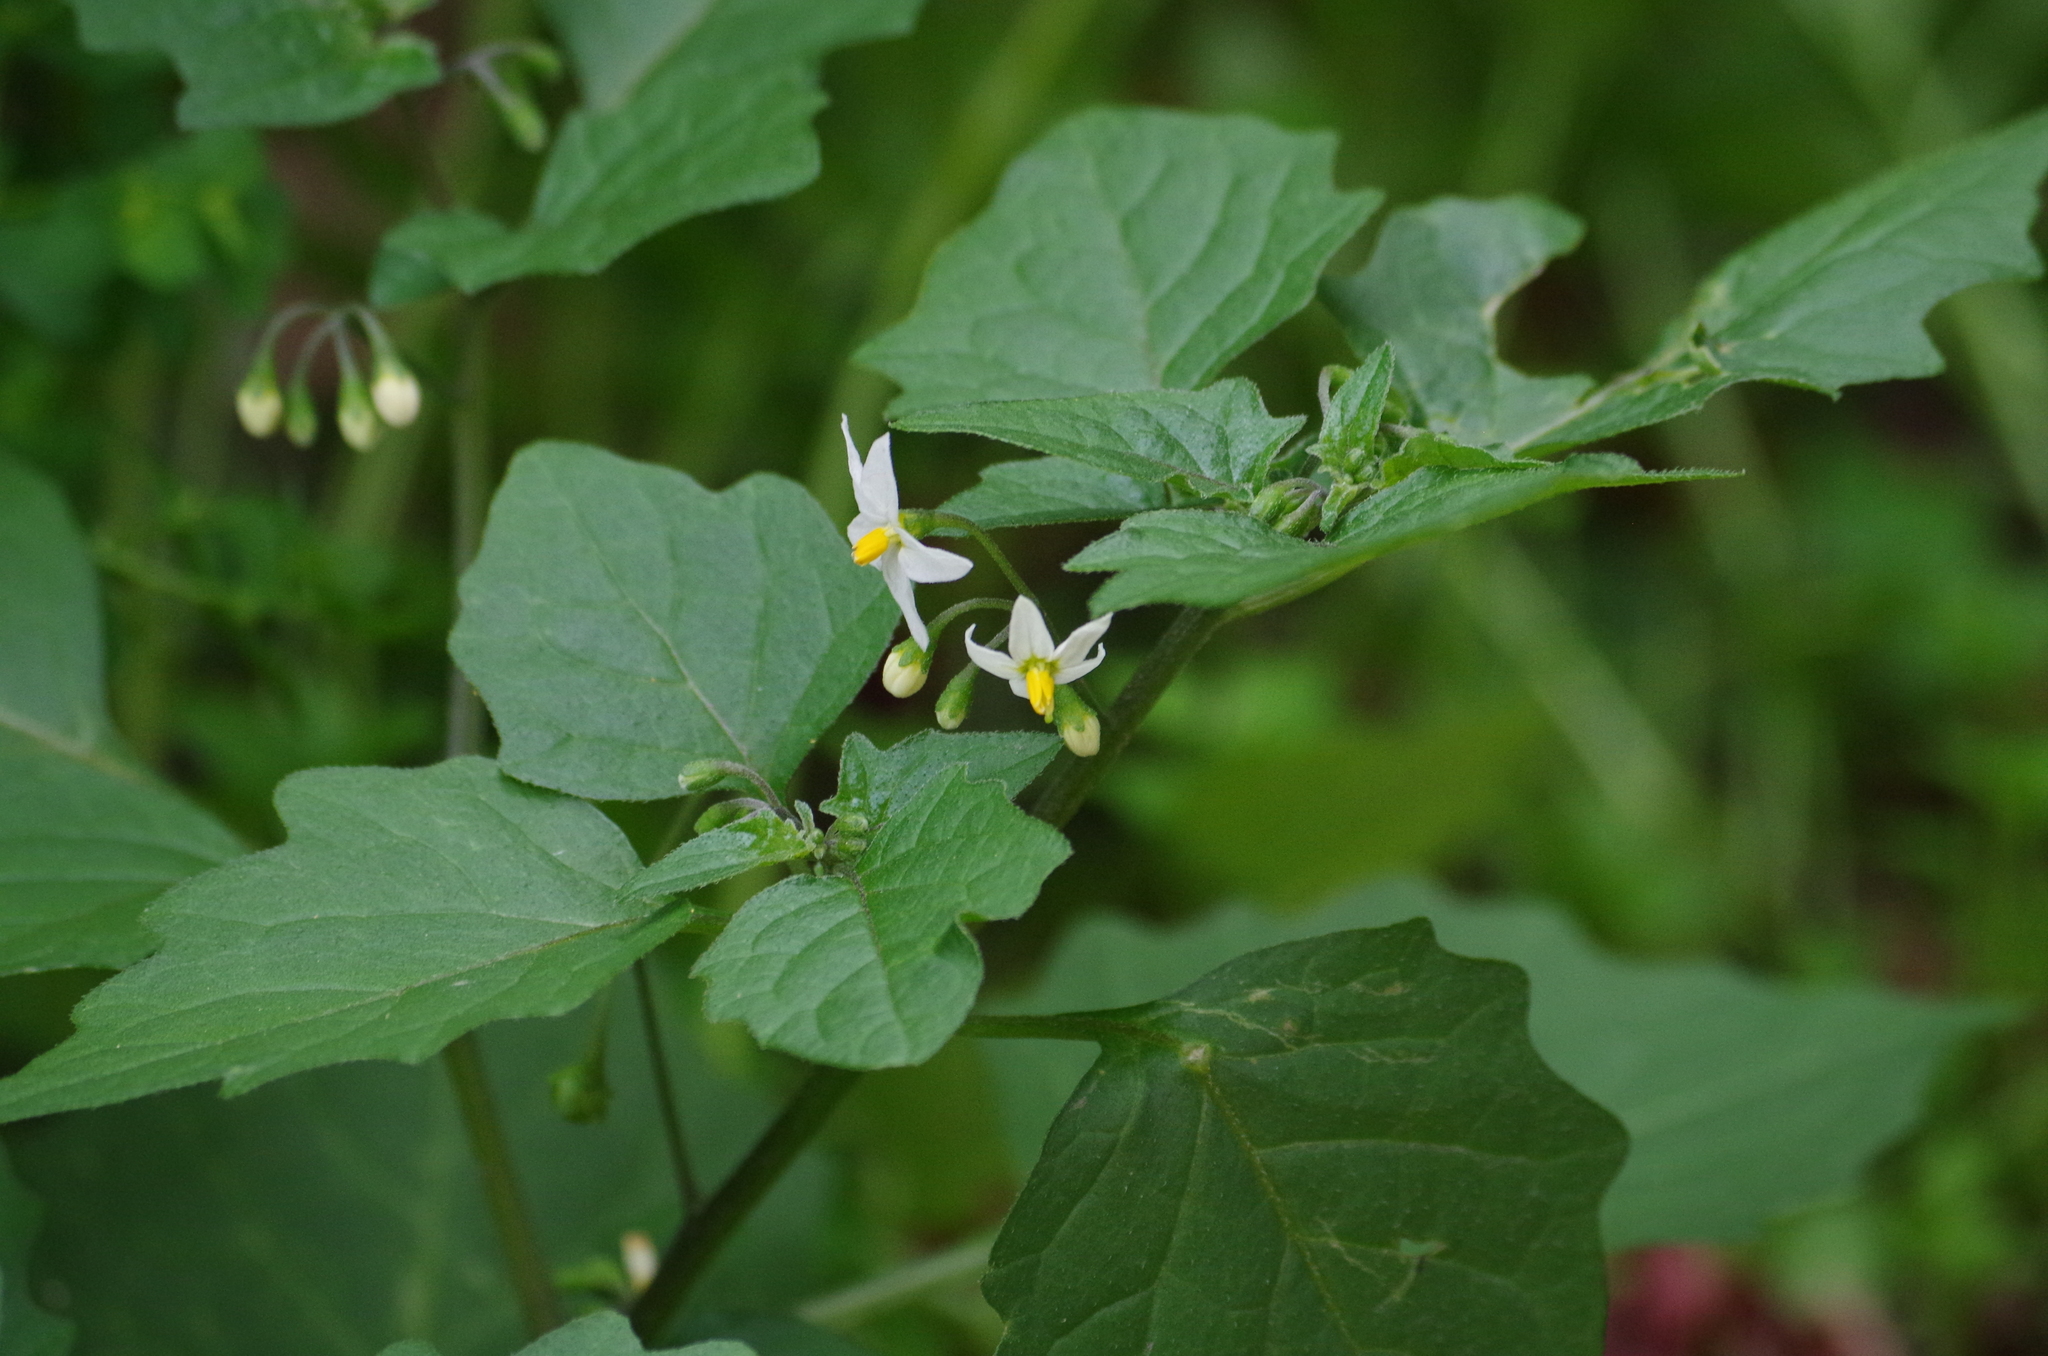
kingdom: Plantae
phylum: Tracheophyta
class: Magnoliopsida
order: Solanales
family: Solanaceae
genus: Solanum
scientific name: Solanum nigrum
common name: Black nightshade
